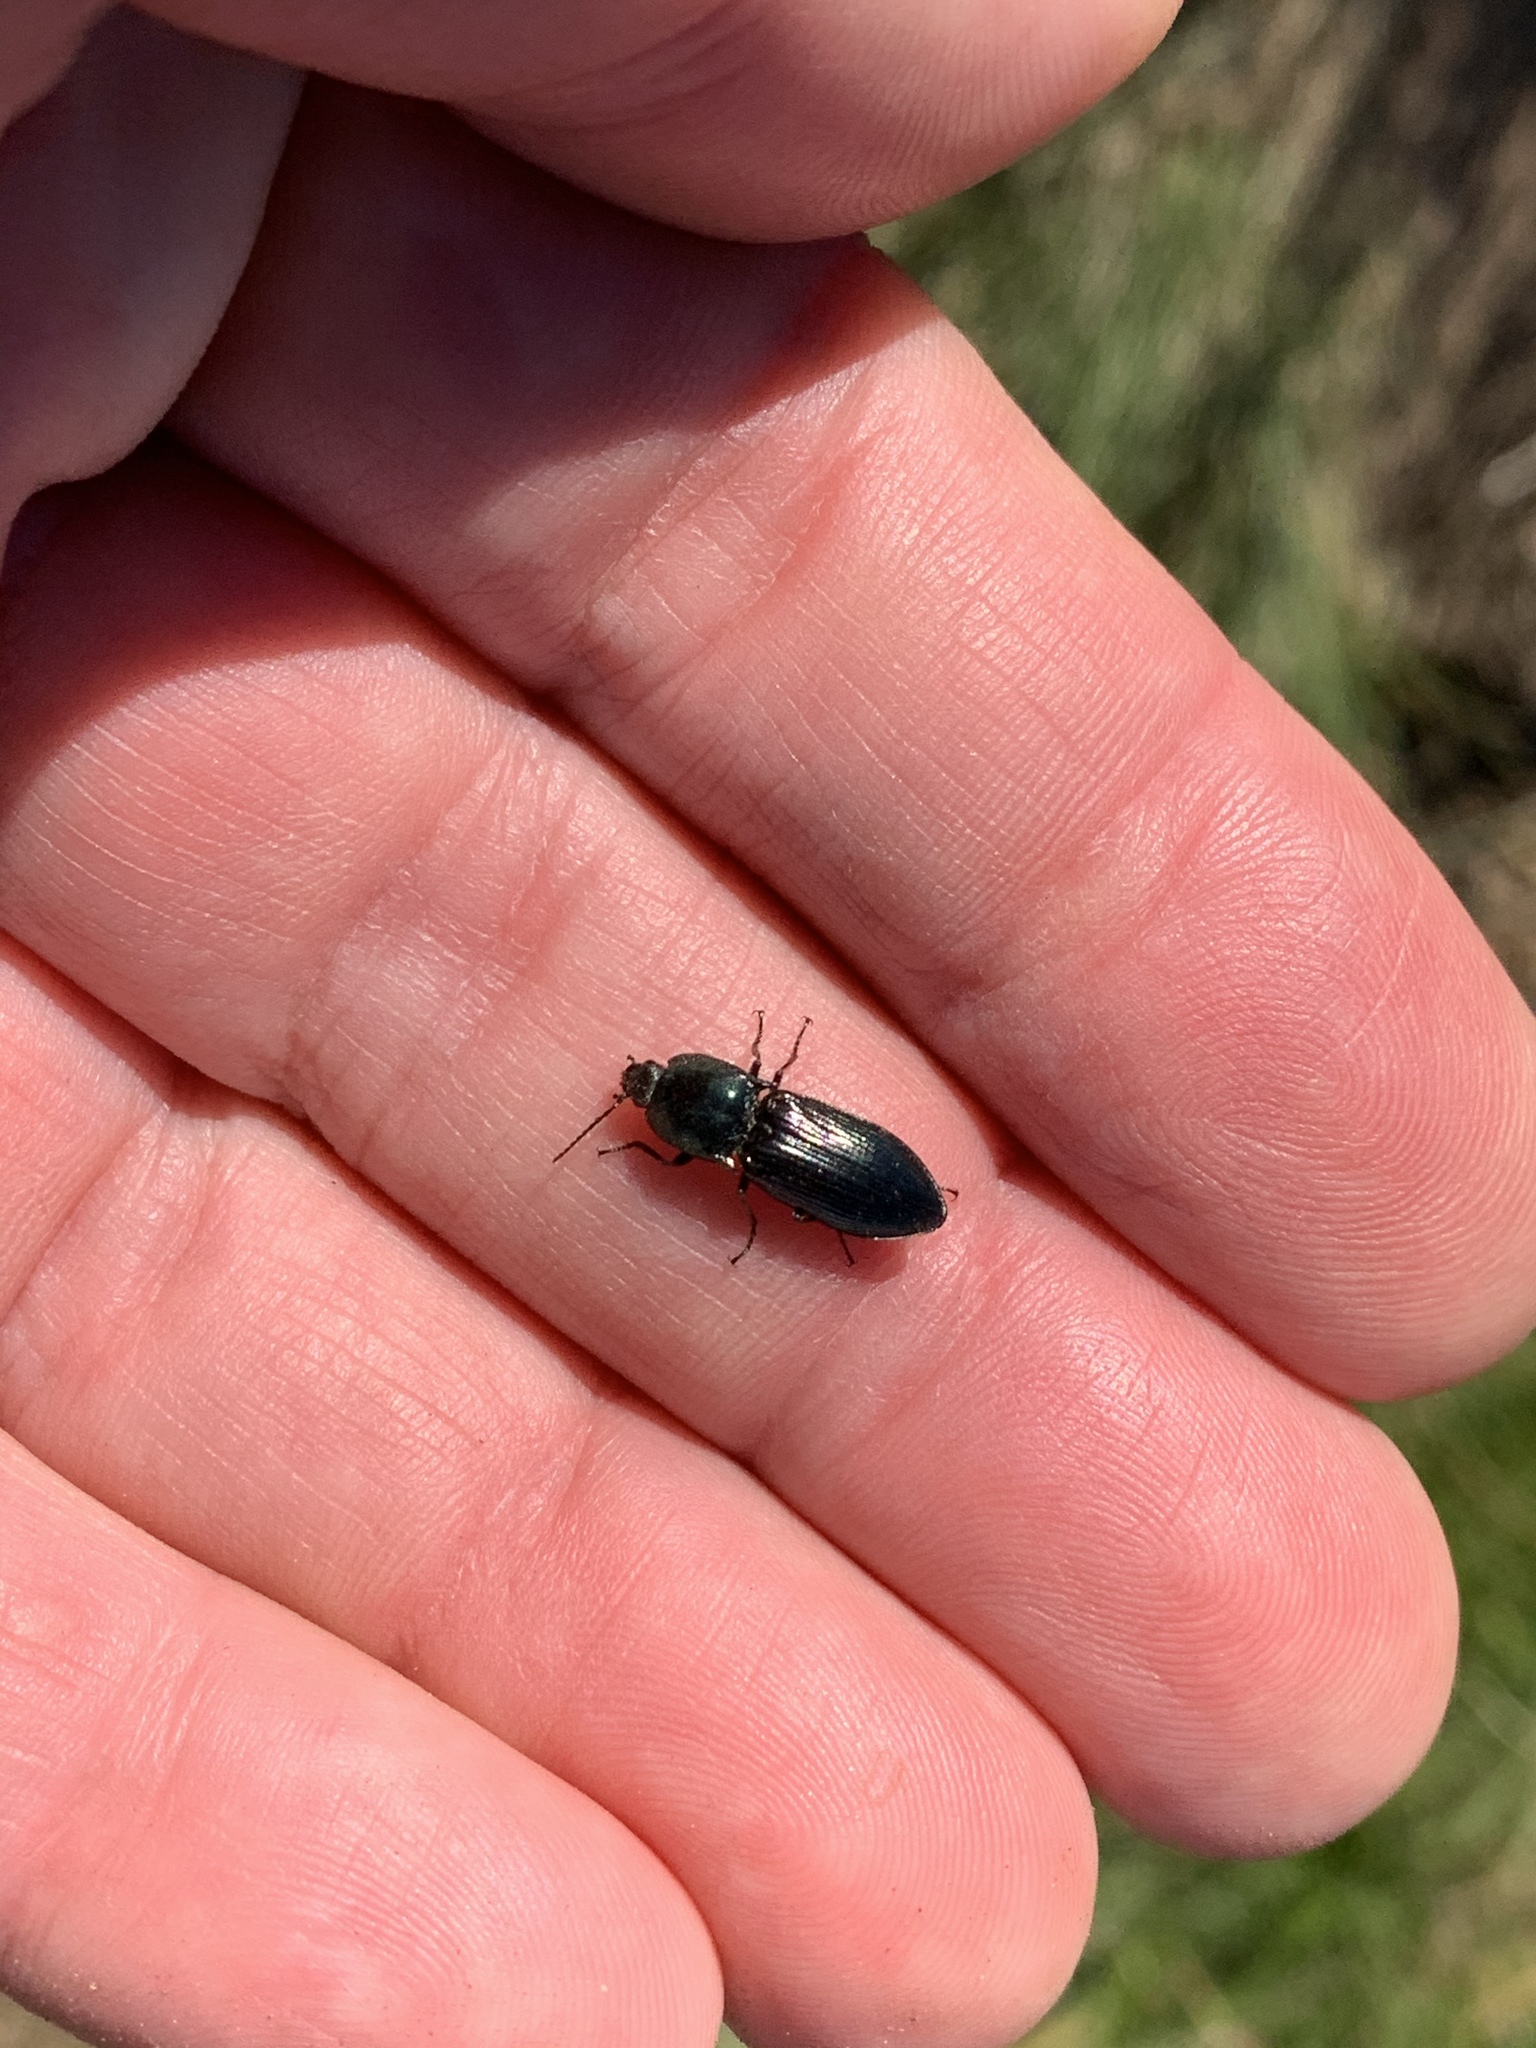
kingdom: Animalia
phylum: Arthropoda
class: Insecta
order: Coleoptera
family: Elateridae
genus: Selatosomus
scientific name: Selatosomus aeneus
